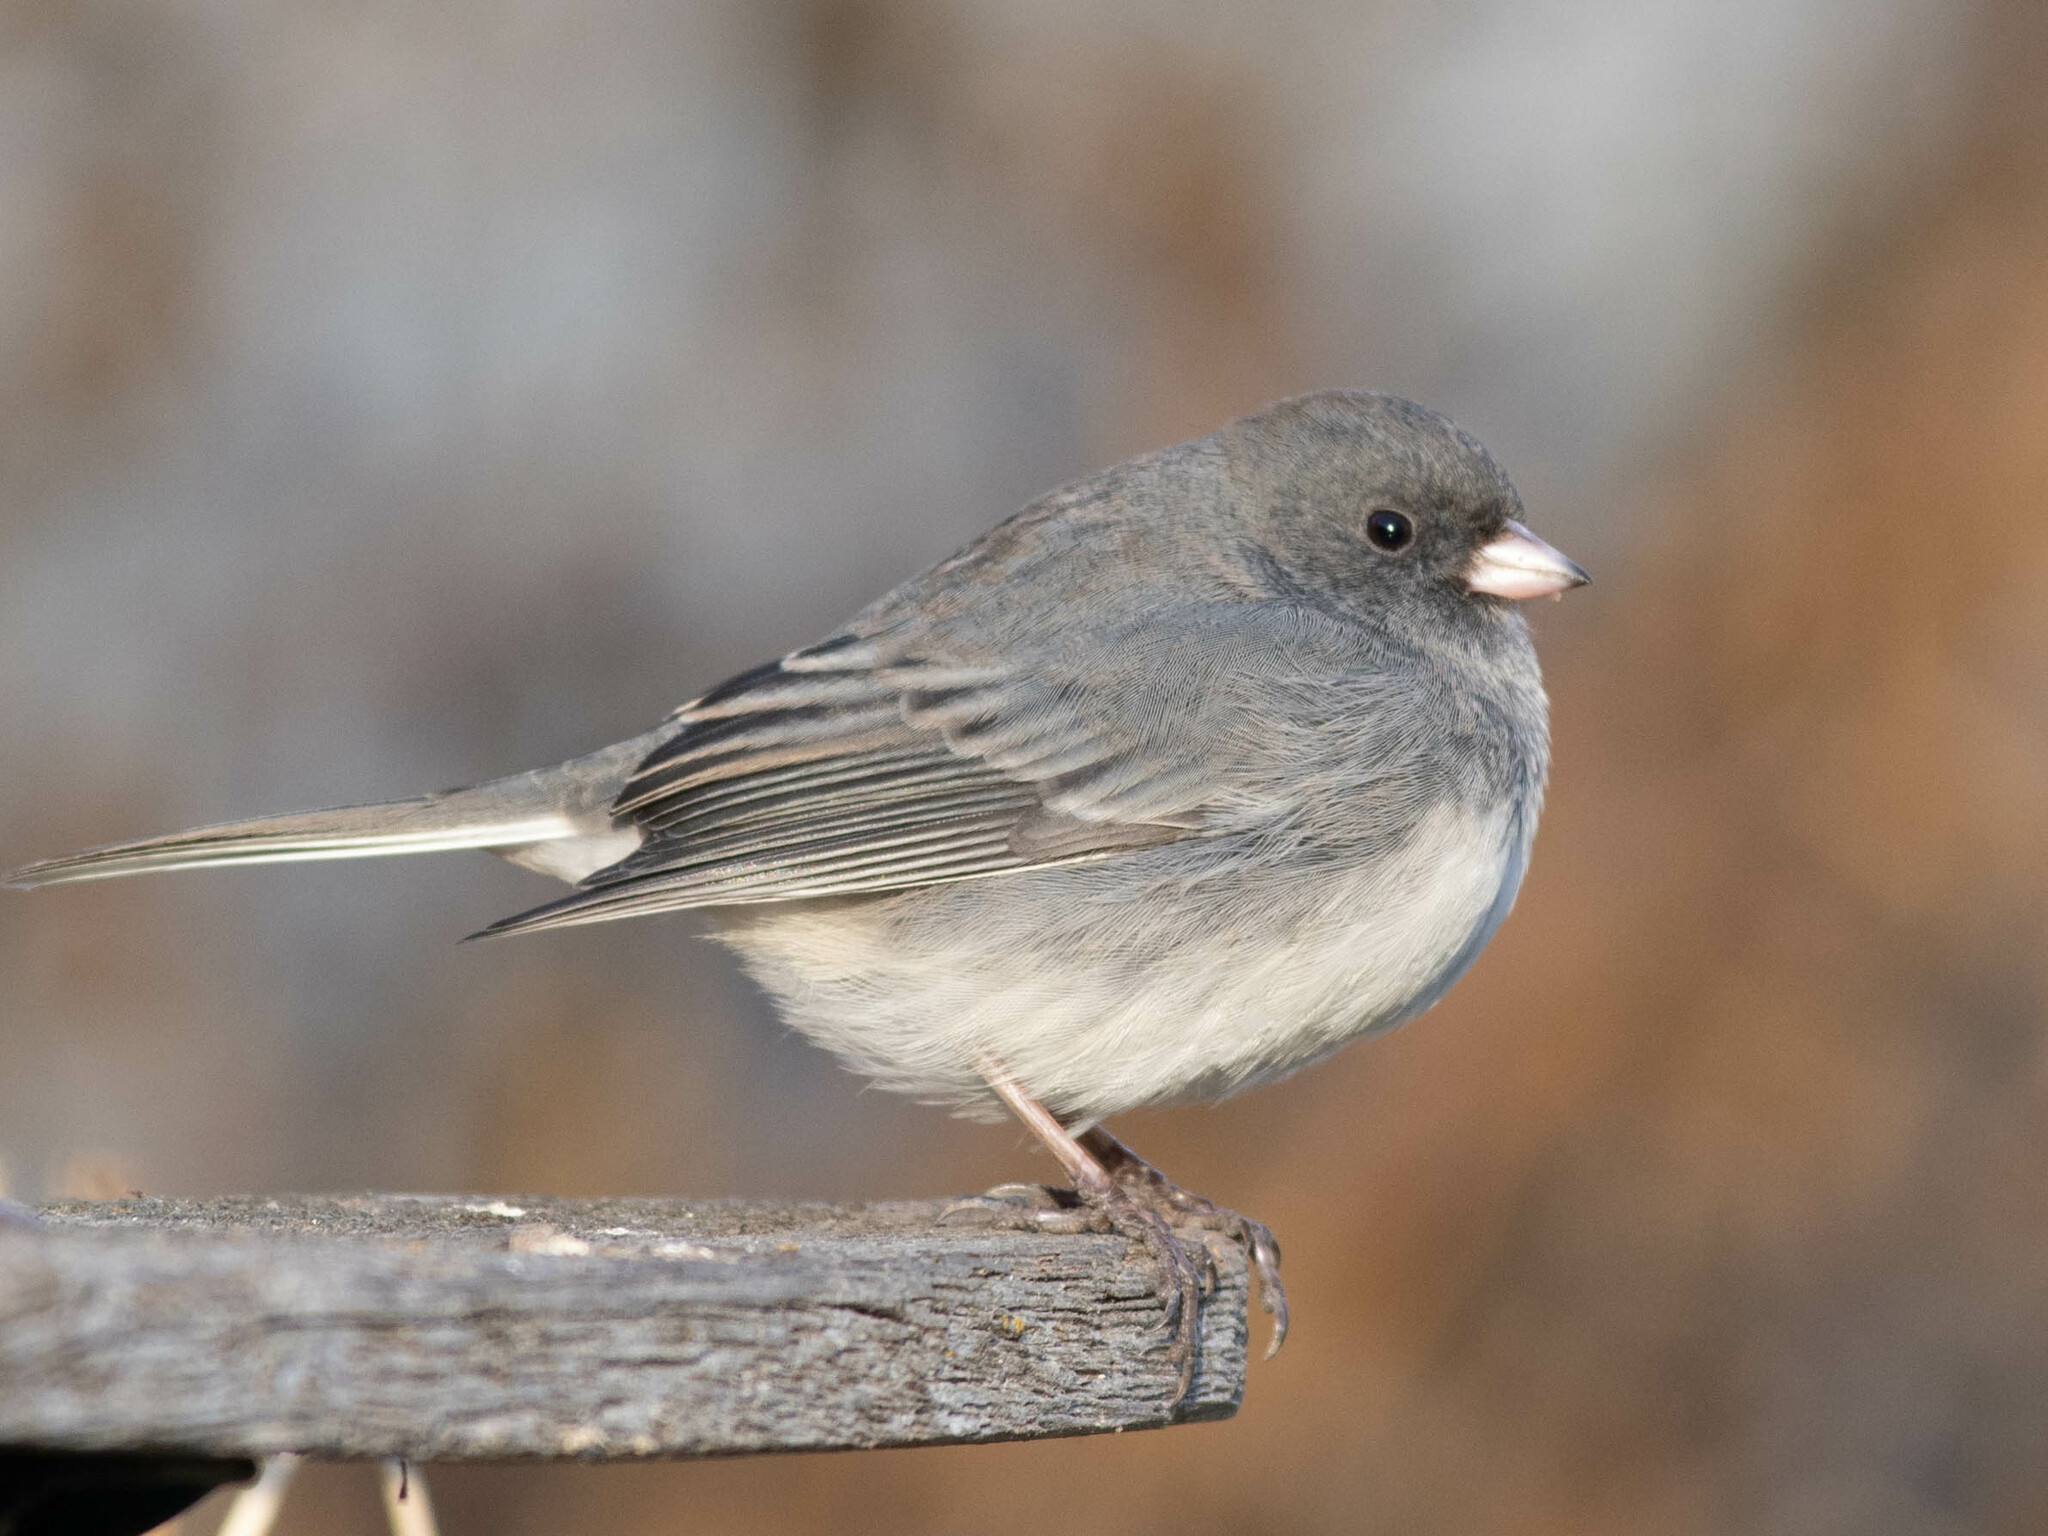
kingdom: Animalia
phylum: Chordata
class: Aves
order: Passeriformes
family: Passerellidae
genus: Junco
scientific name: Junco hyemalis
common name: Dark-eyed junco
